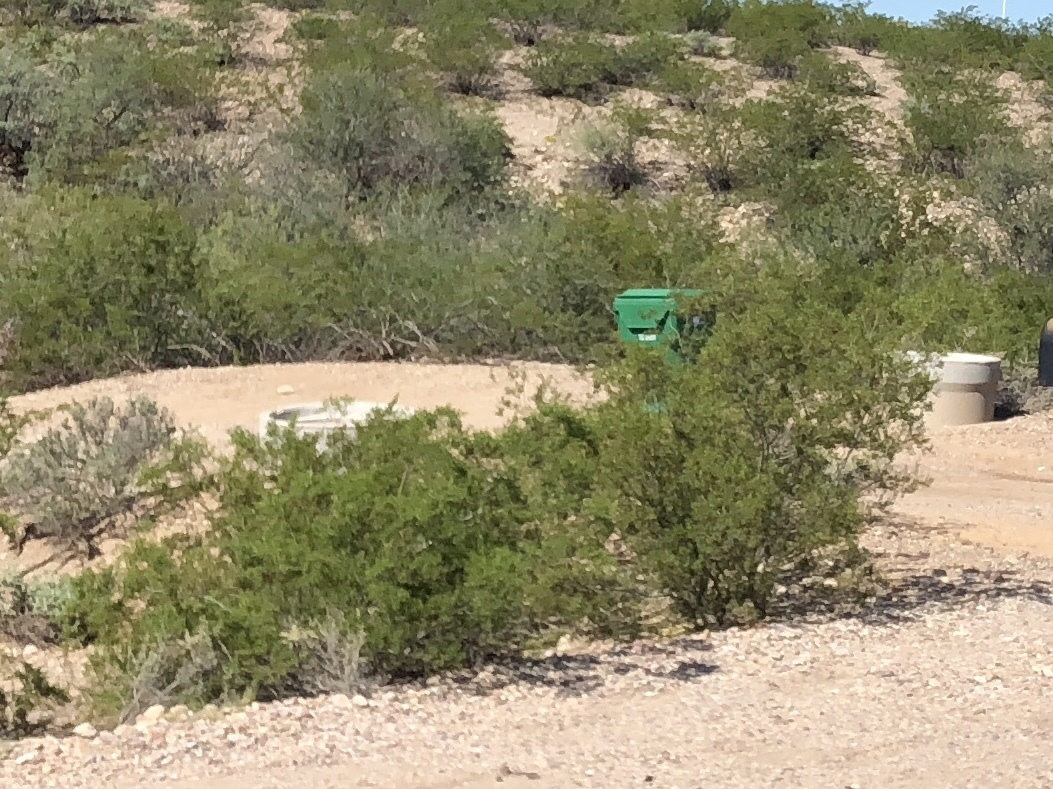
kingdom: Plantae
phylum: Tracheophyta
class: Magnoliopsida
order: Zygophyllales
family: Zygophyllaceae
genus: Larrea
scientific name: Larrea tridentata
